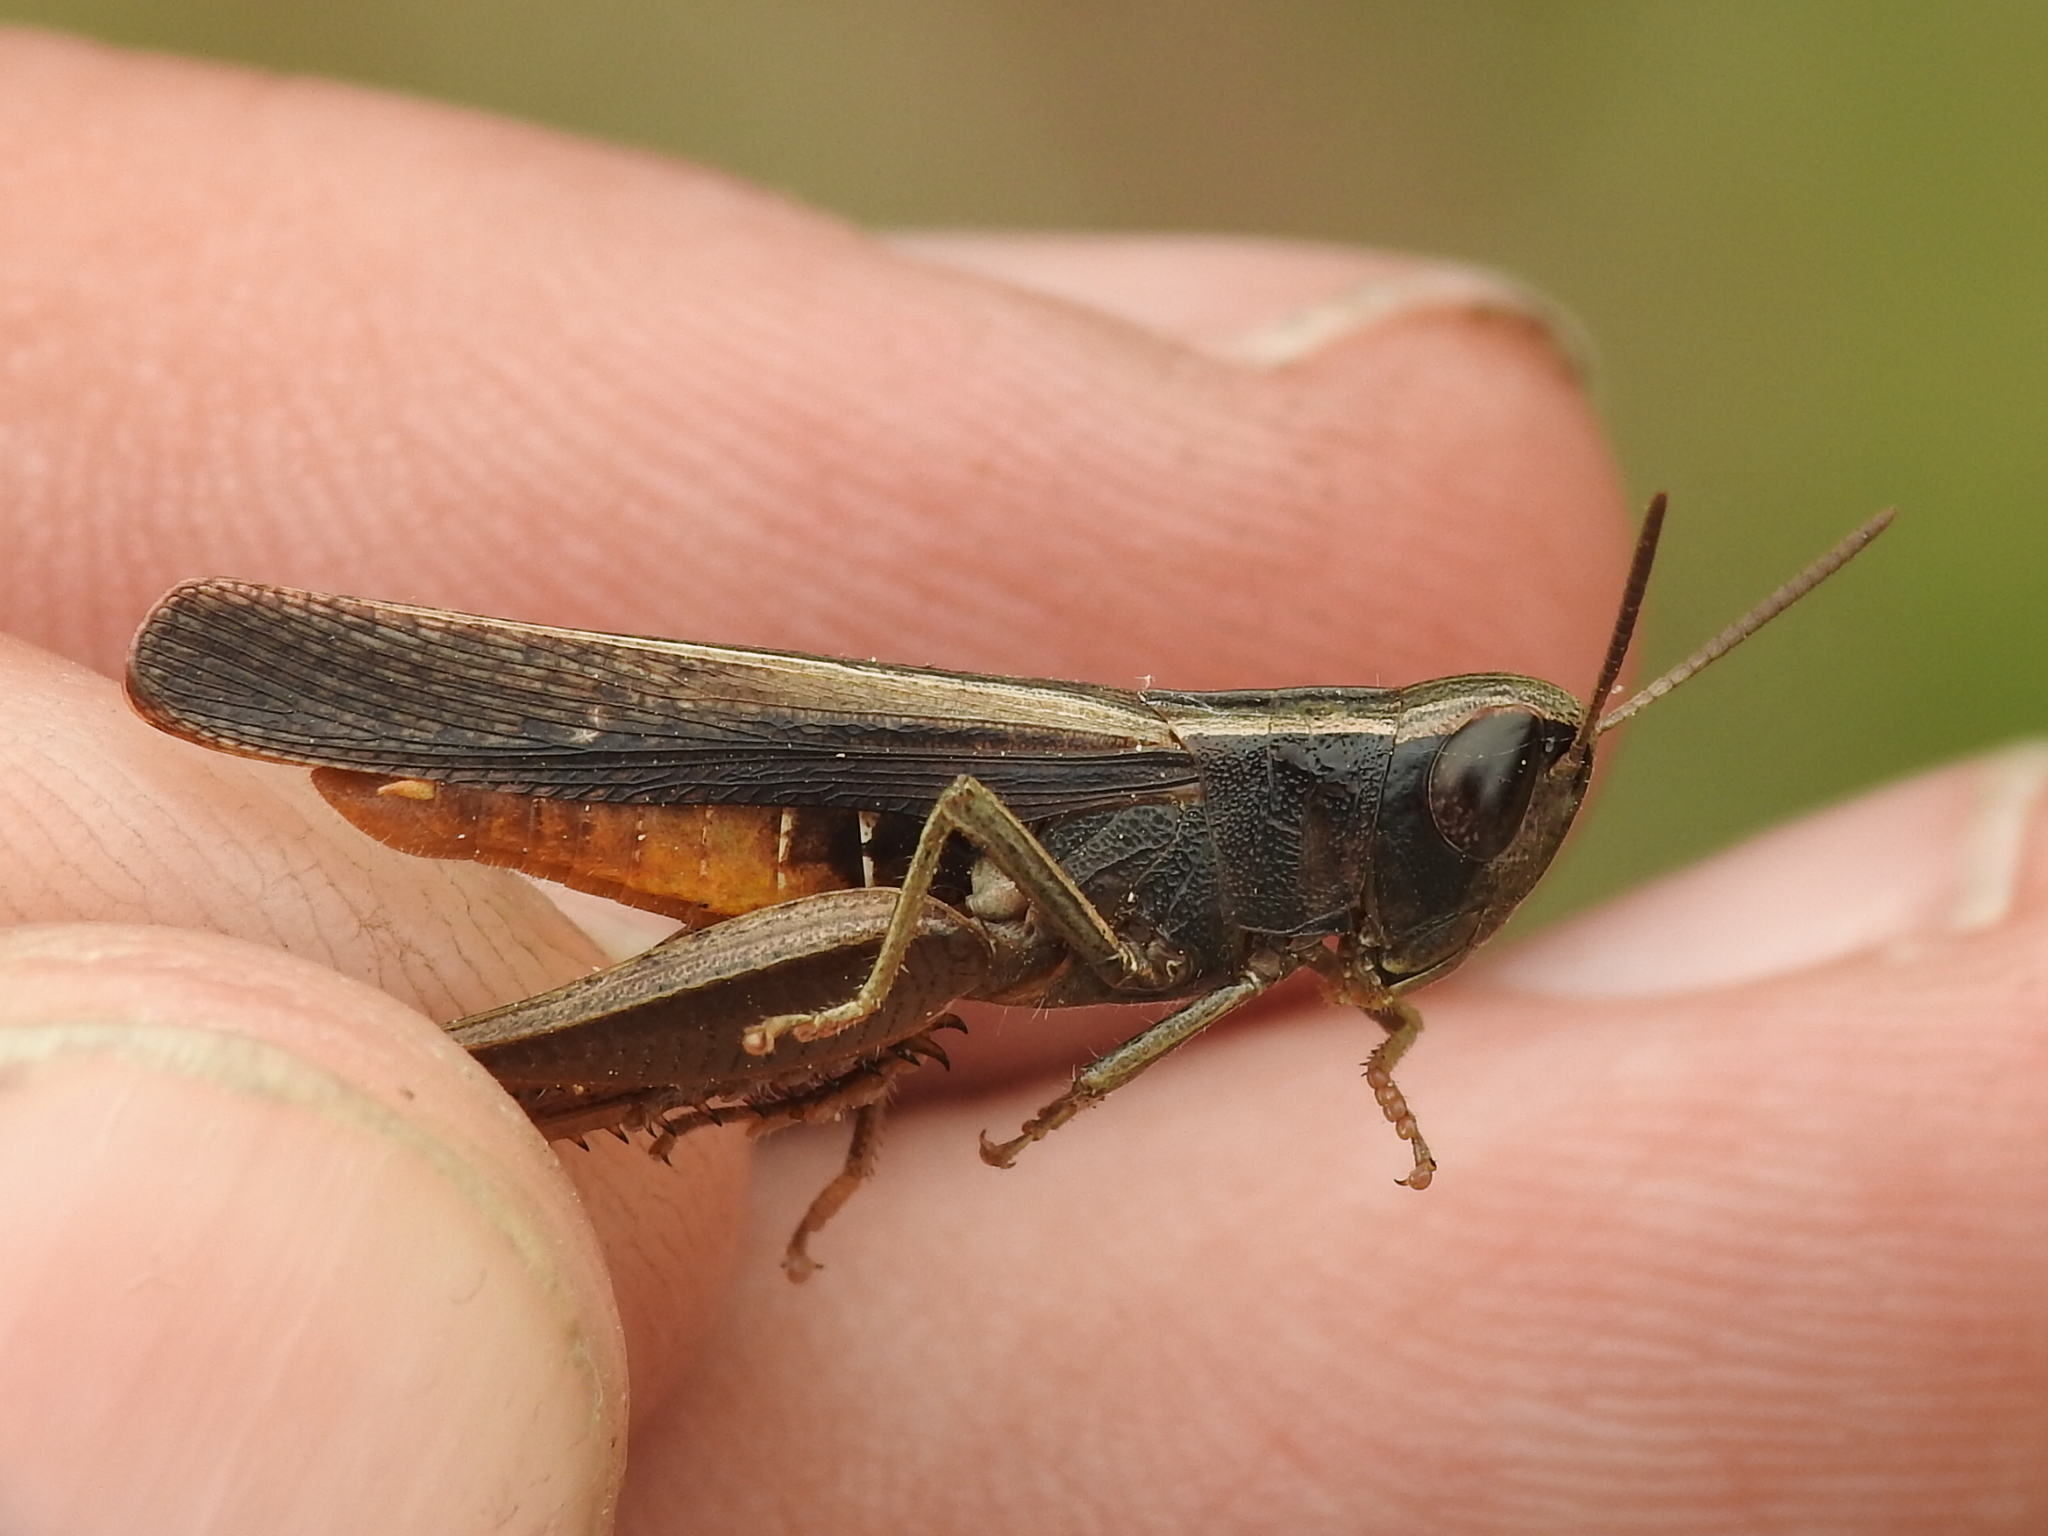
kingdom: Animalia
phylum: Arthropoda
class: Insecta
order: Orthoptera
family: Acrididae
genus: Amblytropidia
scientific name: Amblytropidia mysteca
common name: Brown winter grasshopper
